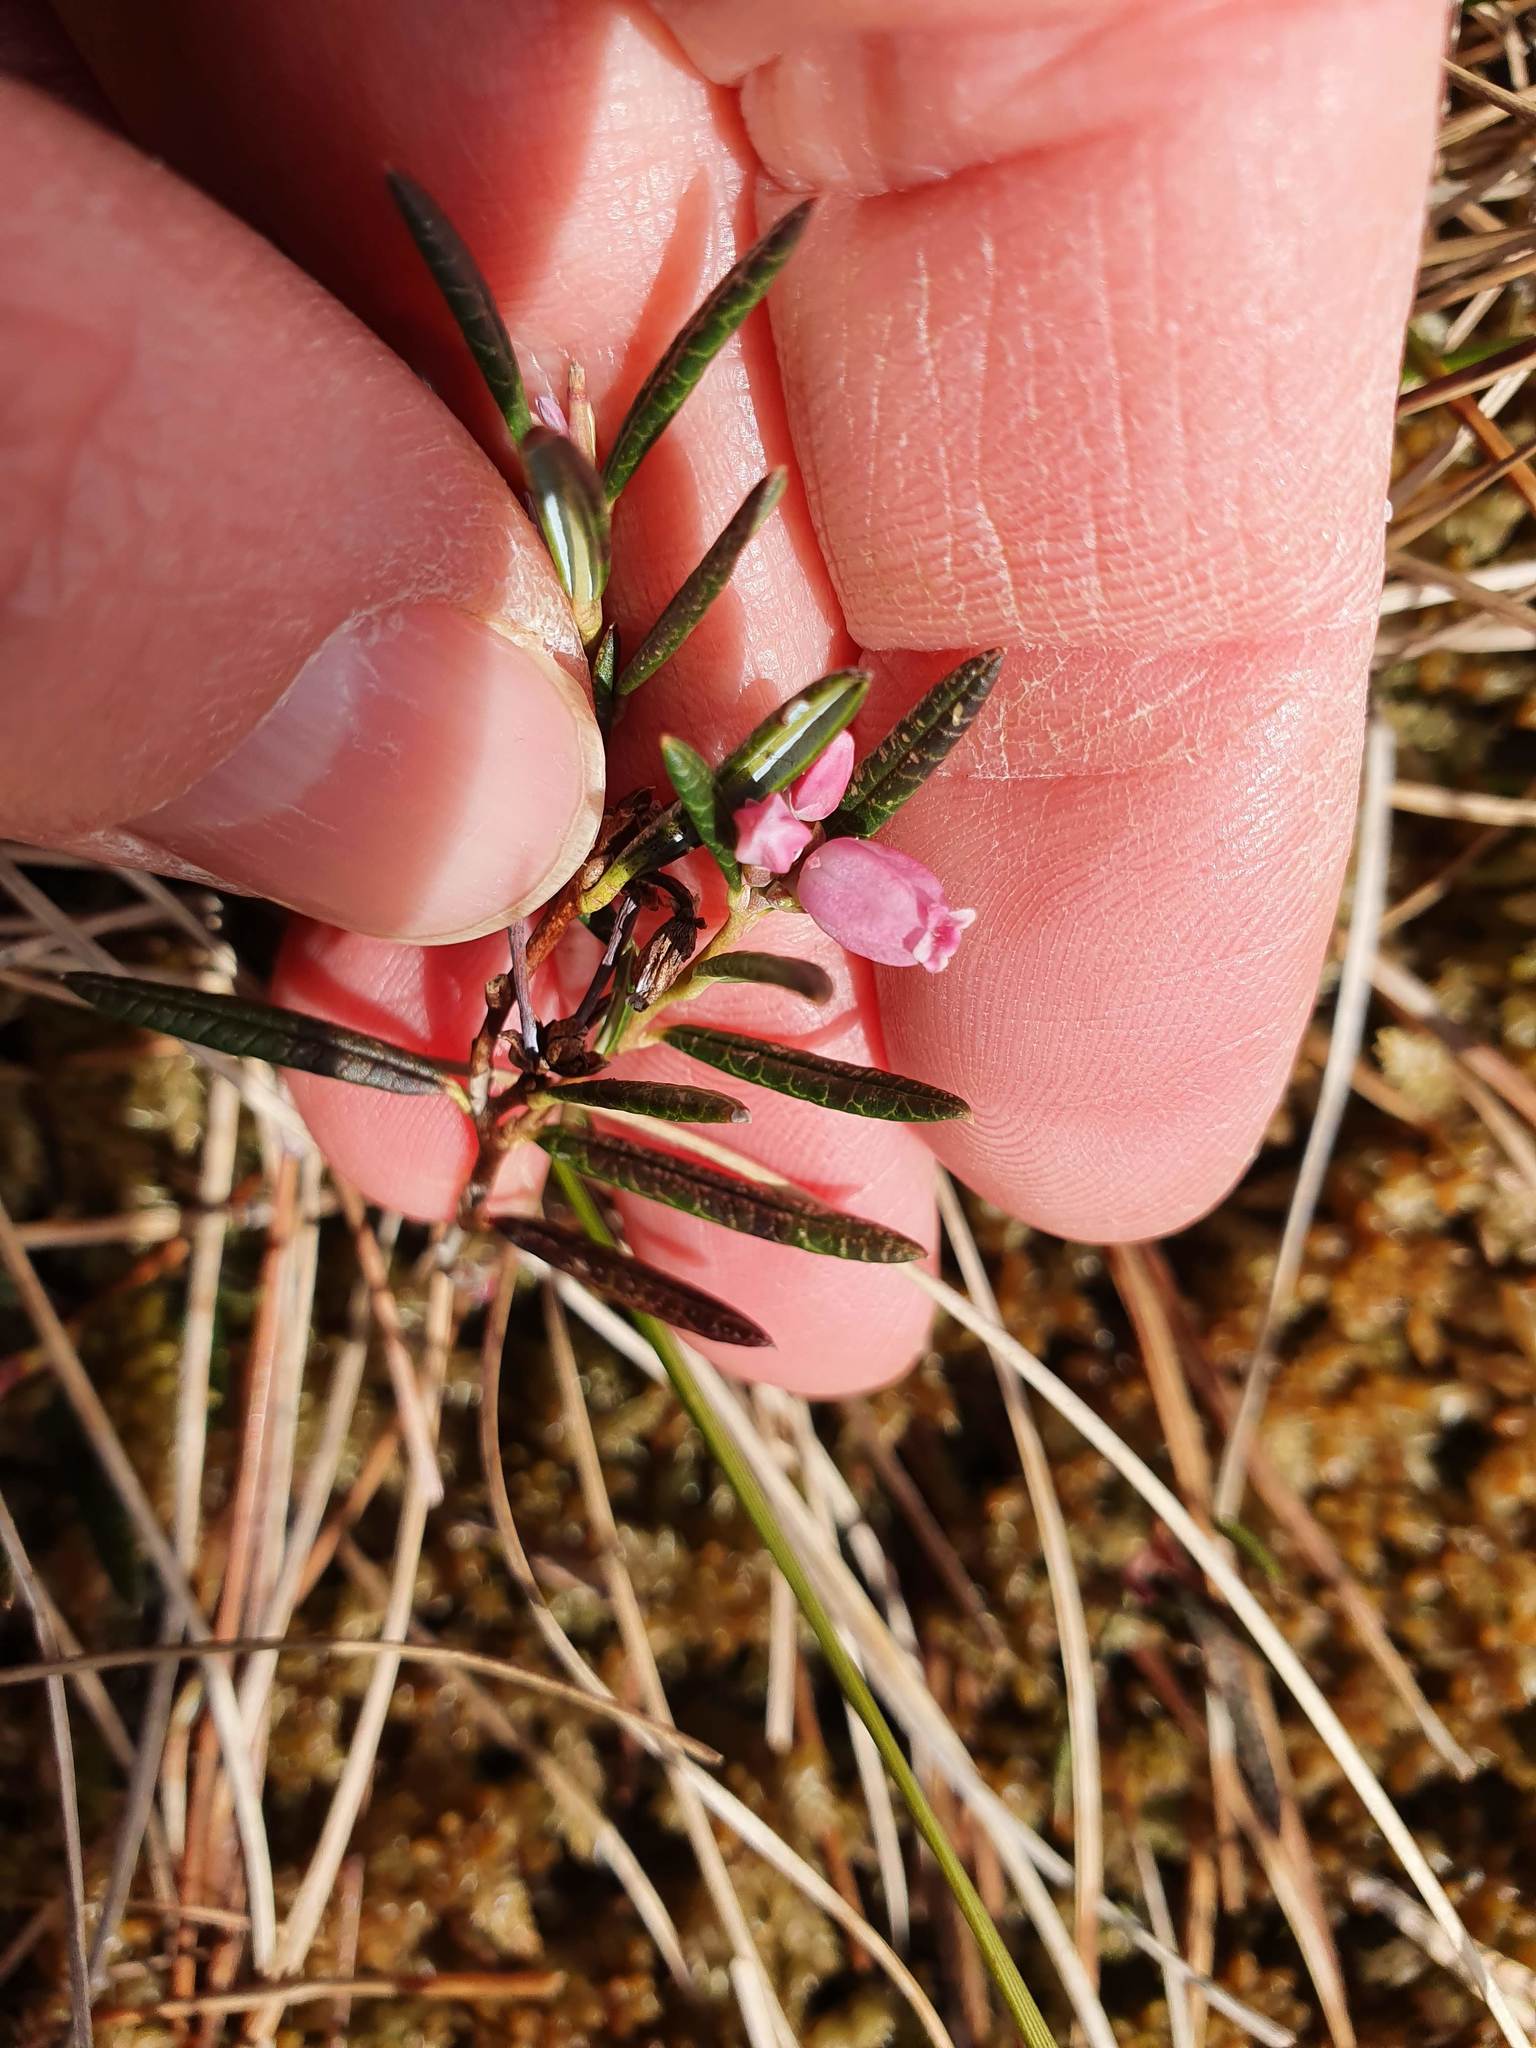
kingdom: Plantae
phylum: Tracheophyta
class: Magnoliopsida
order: Ericales
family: Ericaceae
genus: Andromeda
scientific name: Andromeda polifolia
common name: Bog-rosemary
